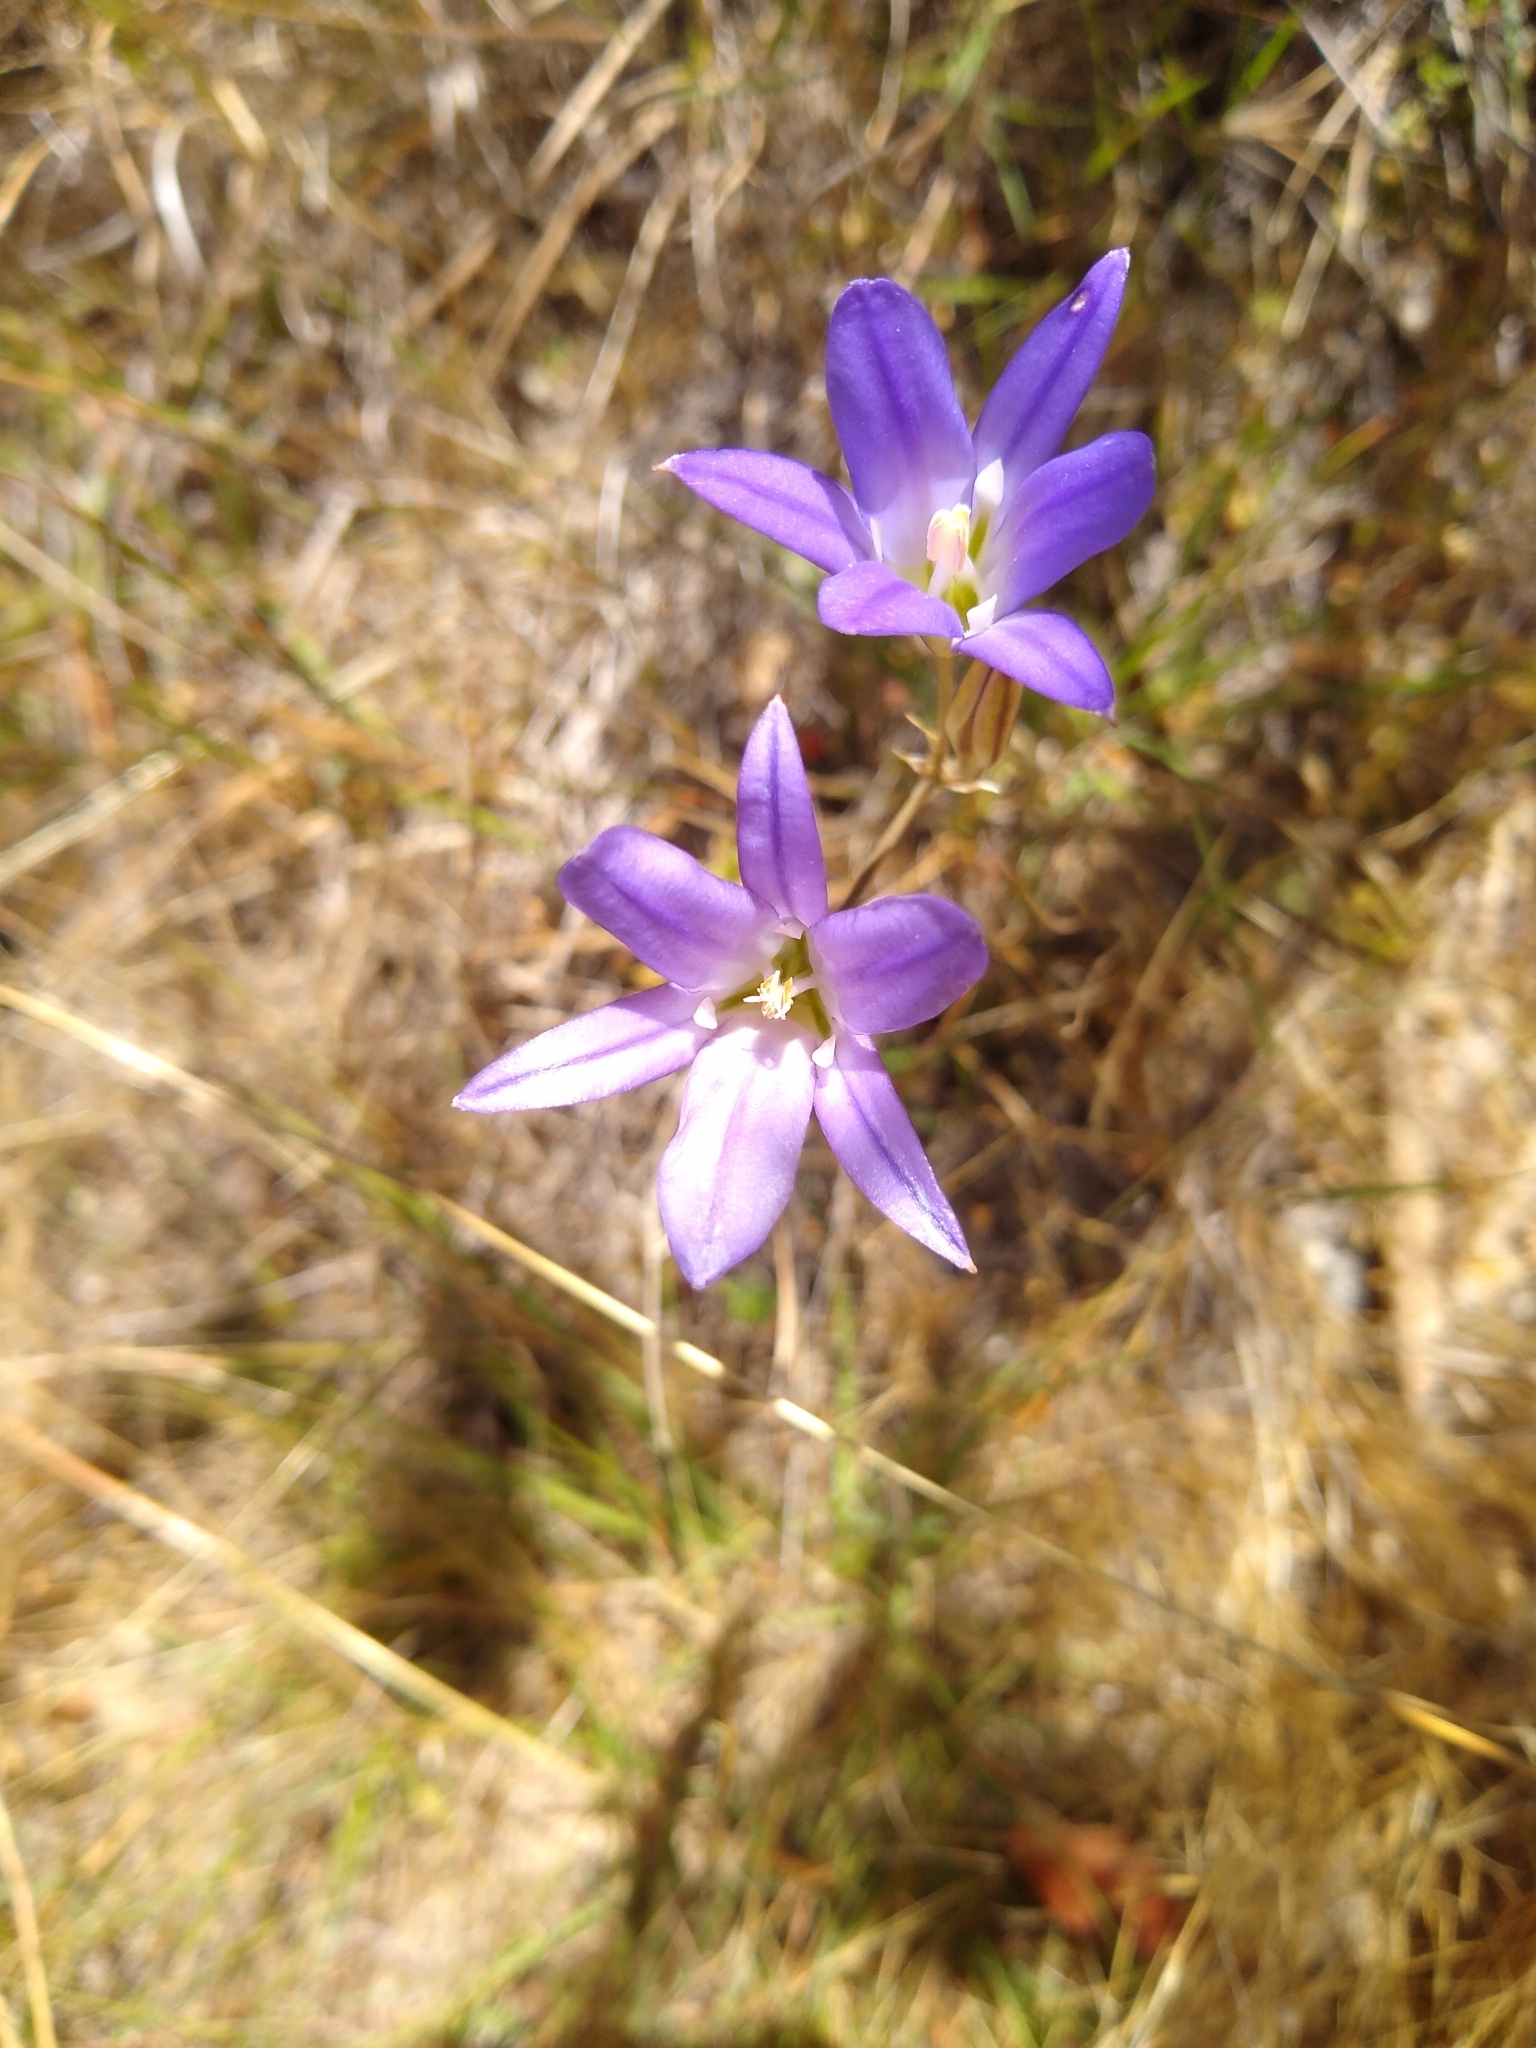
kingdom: Plantae
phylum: Tracheophyta
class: Liliopsida
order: Asparagales
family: Asparagaceae
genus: Brodiaea
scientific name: Brodiaea elegans
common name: Elegant cluster-lily
